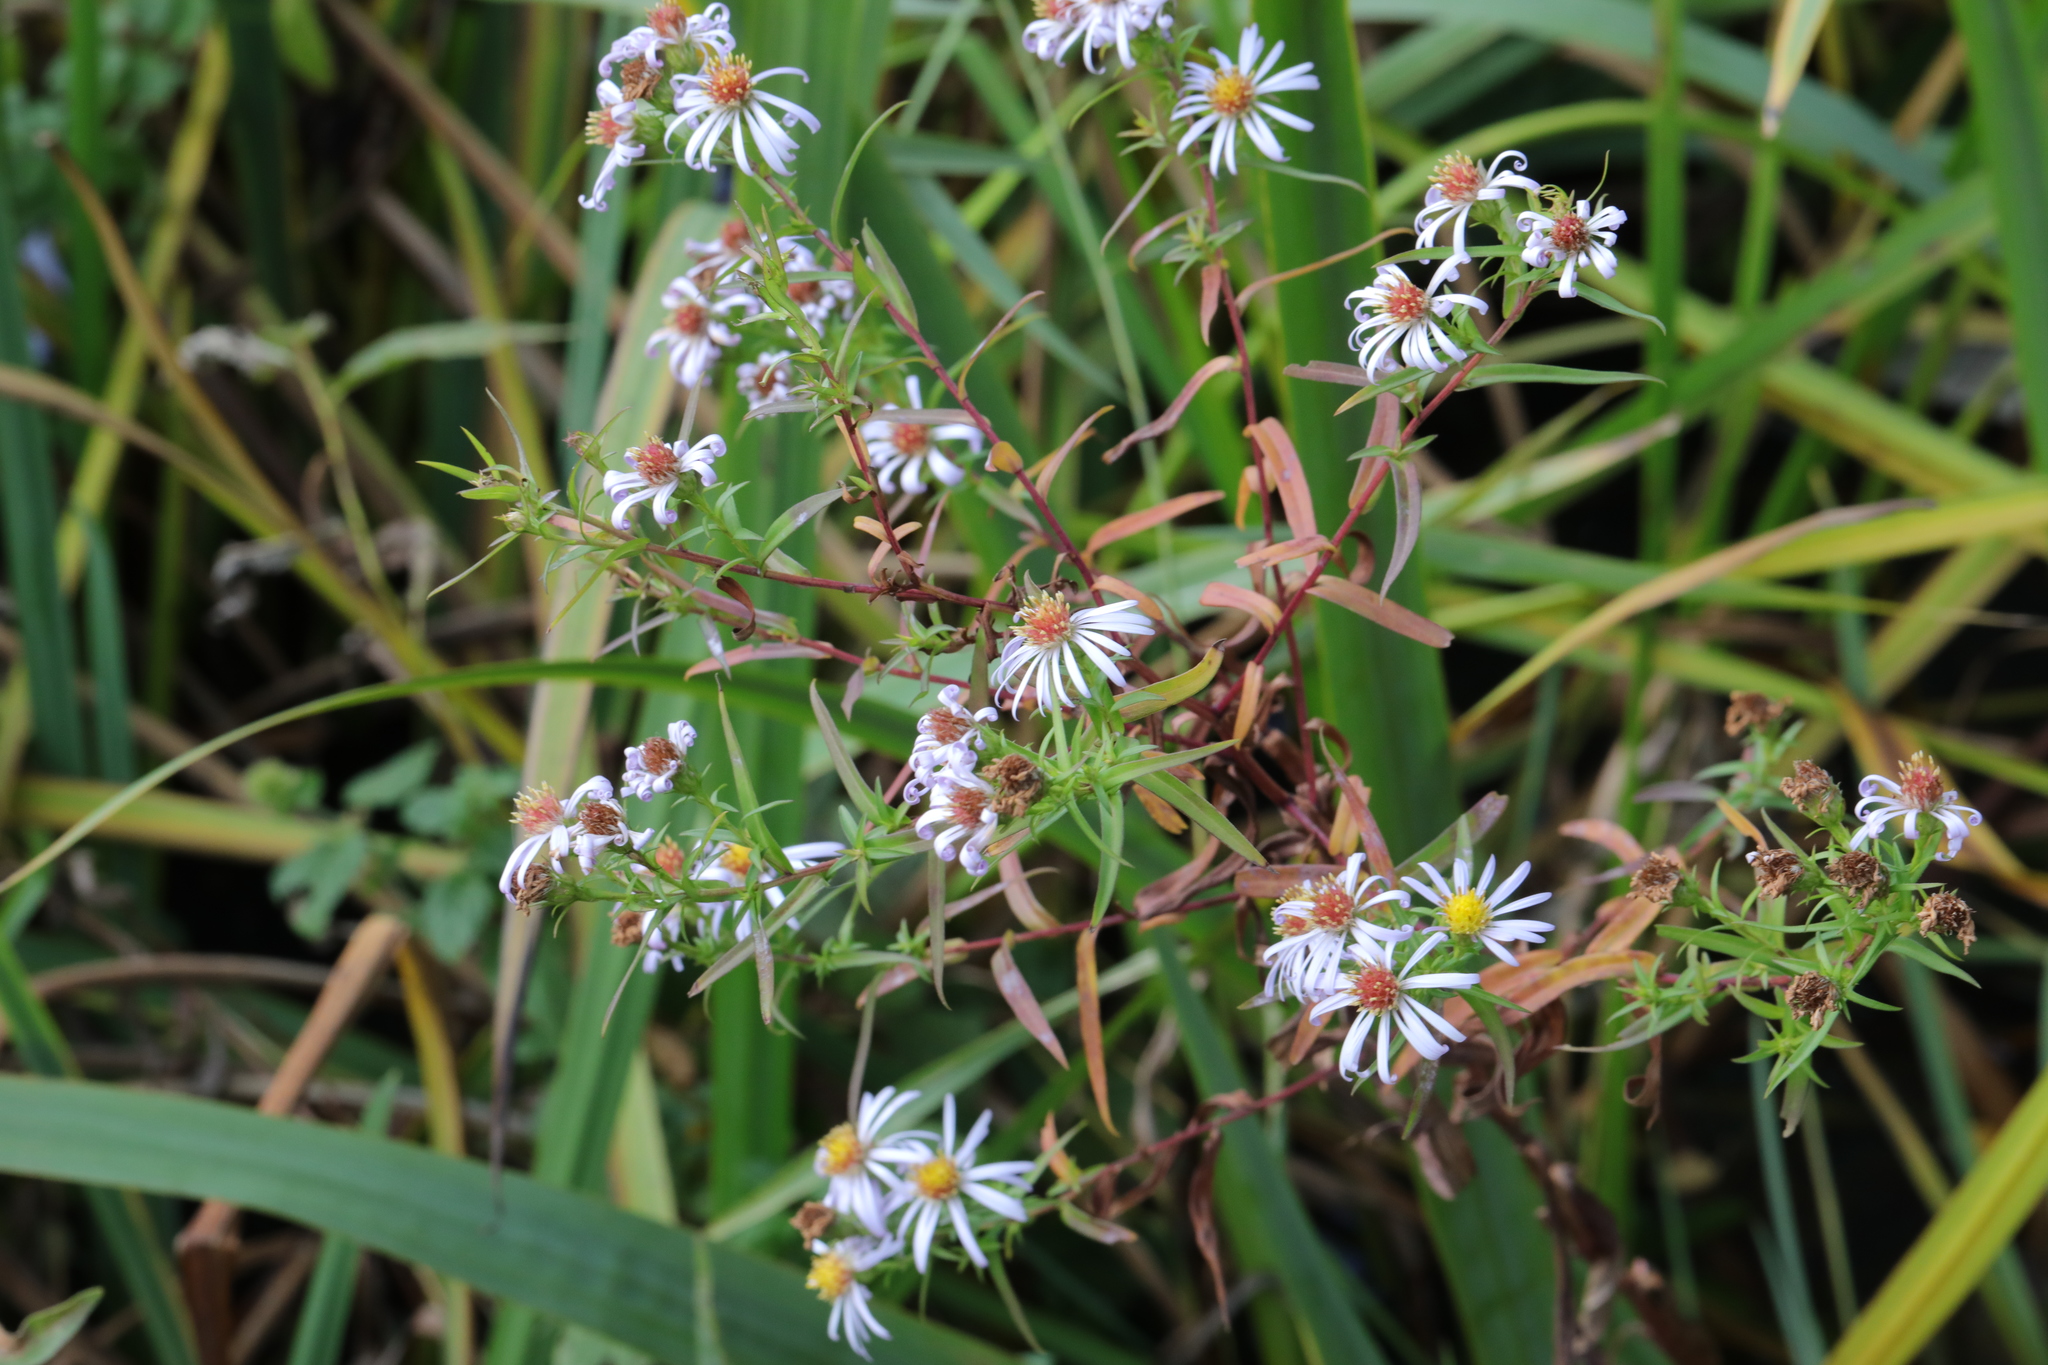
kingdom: Plantae
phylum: Tracheophyta
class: Magnoliopsida
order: Asterales
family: Asteraceae
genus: Symphyotrichum
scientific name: Symphyotrichum novi-belgii
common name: Michaelmas daisy
